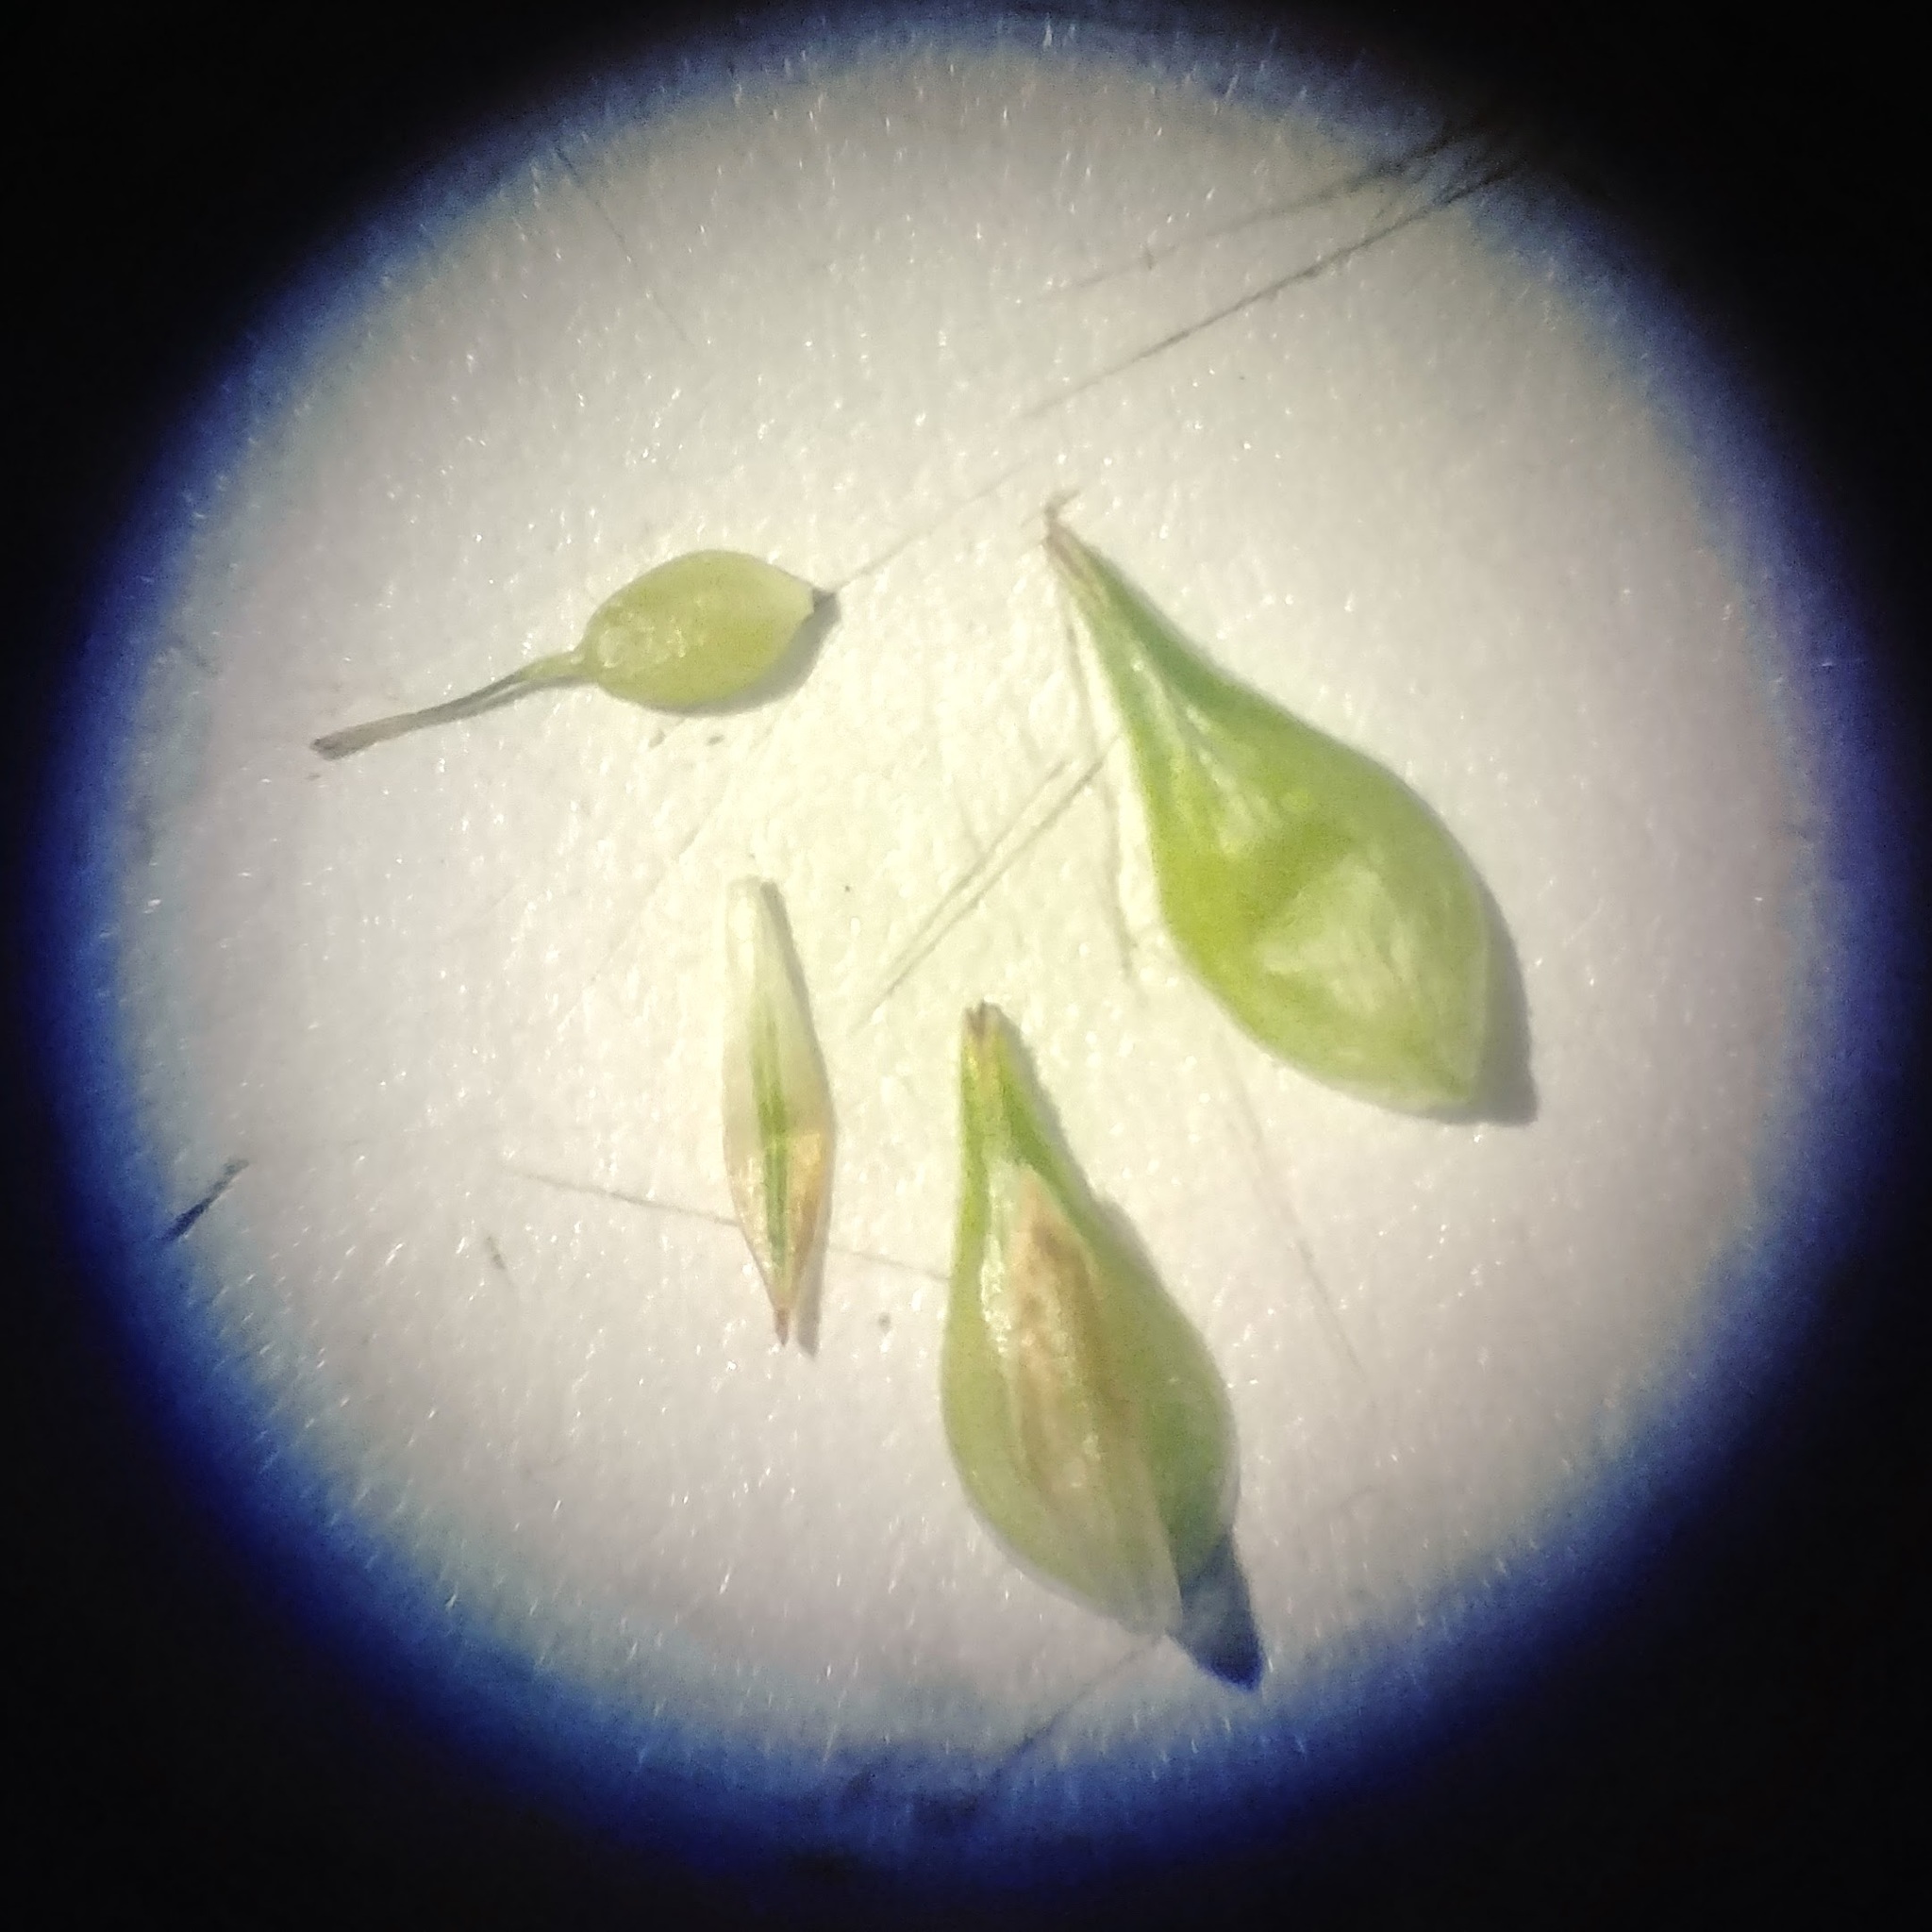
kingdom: Plantae
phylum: Tracheophyta
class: Liliopsida
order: Poales
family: Cyperaceae
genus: Carex
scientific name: Carex tenera
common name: Broad-fruited sedge
